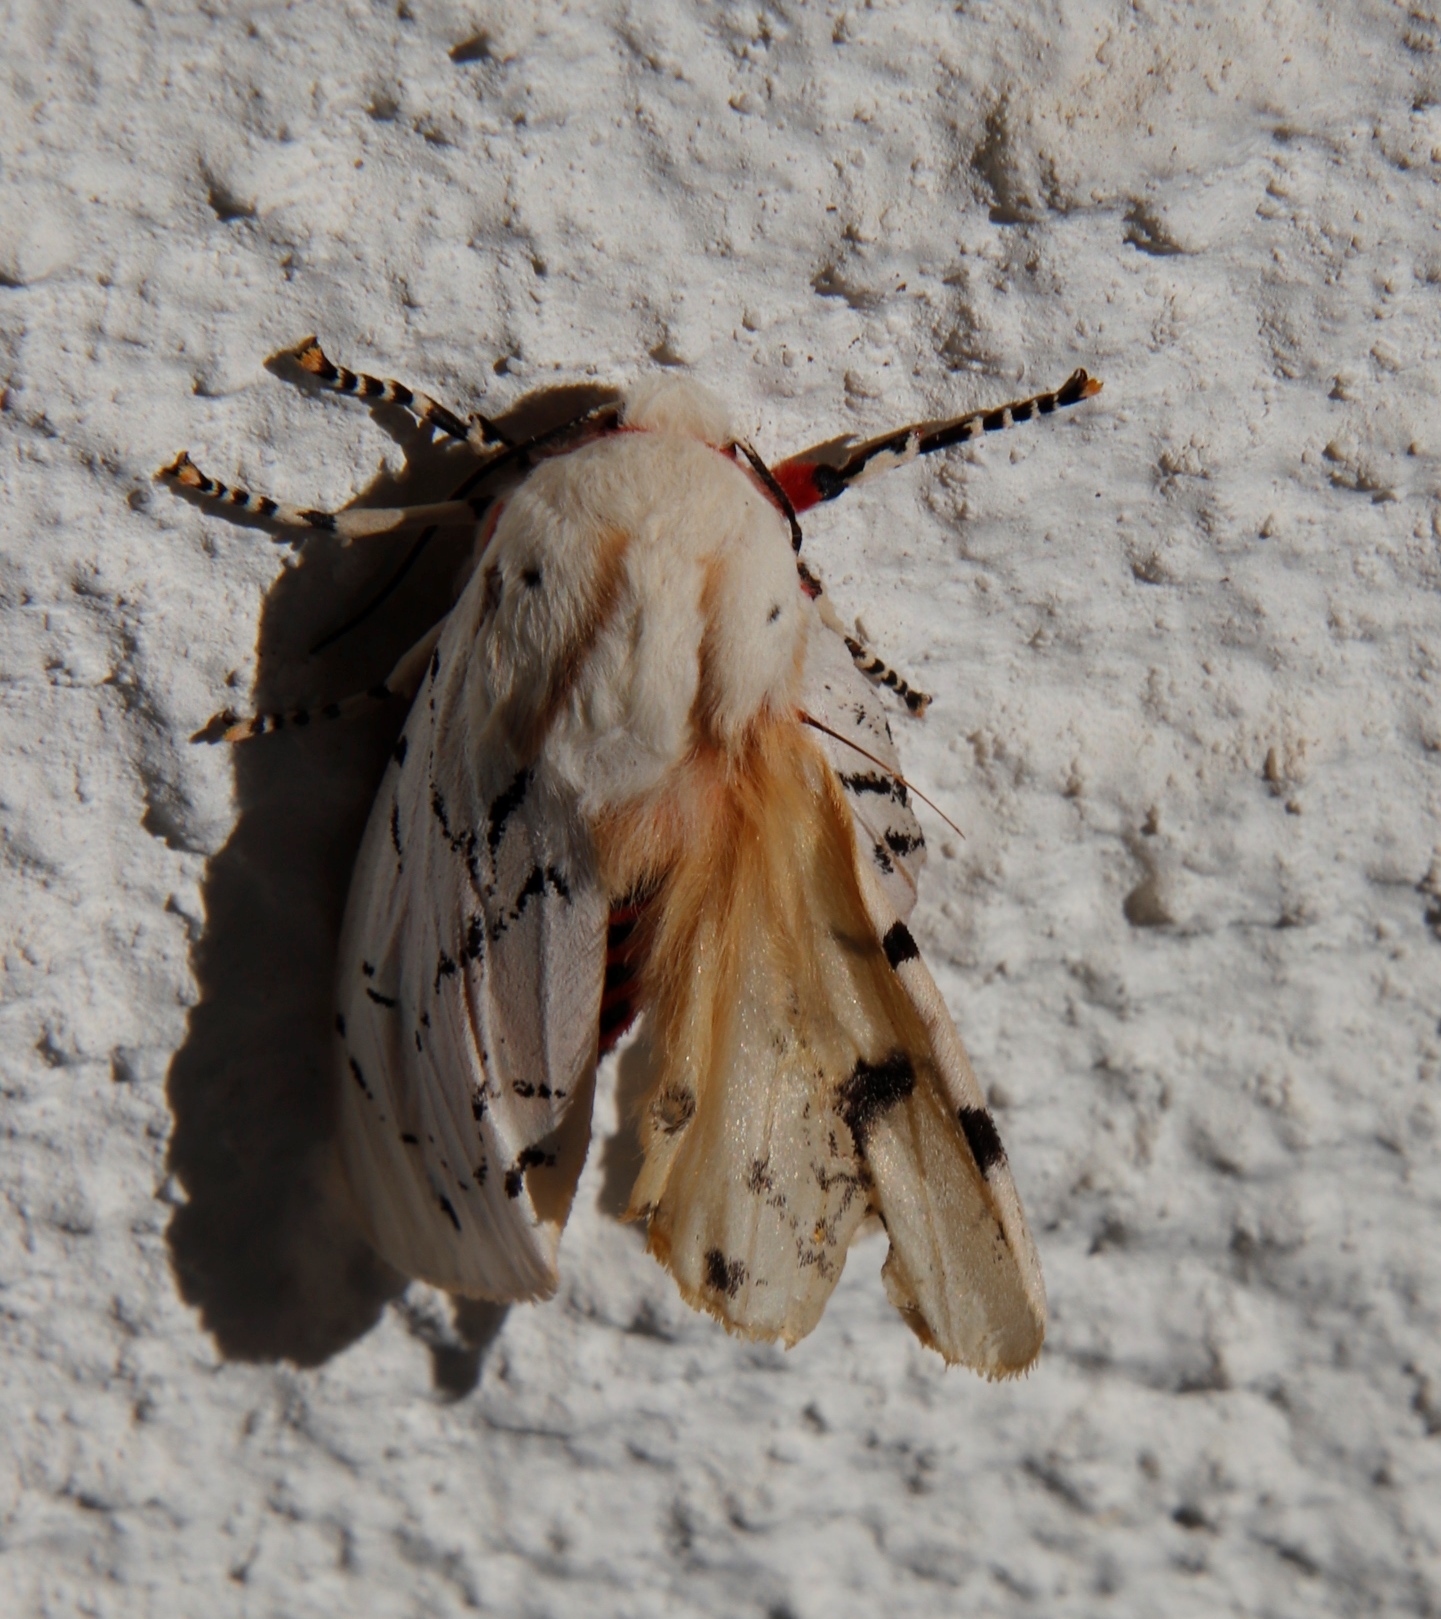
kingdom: Animalia
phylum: Arthropoda
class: Insecta
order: Lepidoptera
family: Erebidae
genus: Rhodogastria
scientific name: Rhodogastria amasis
